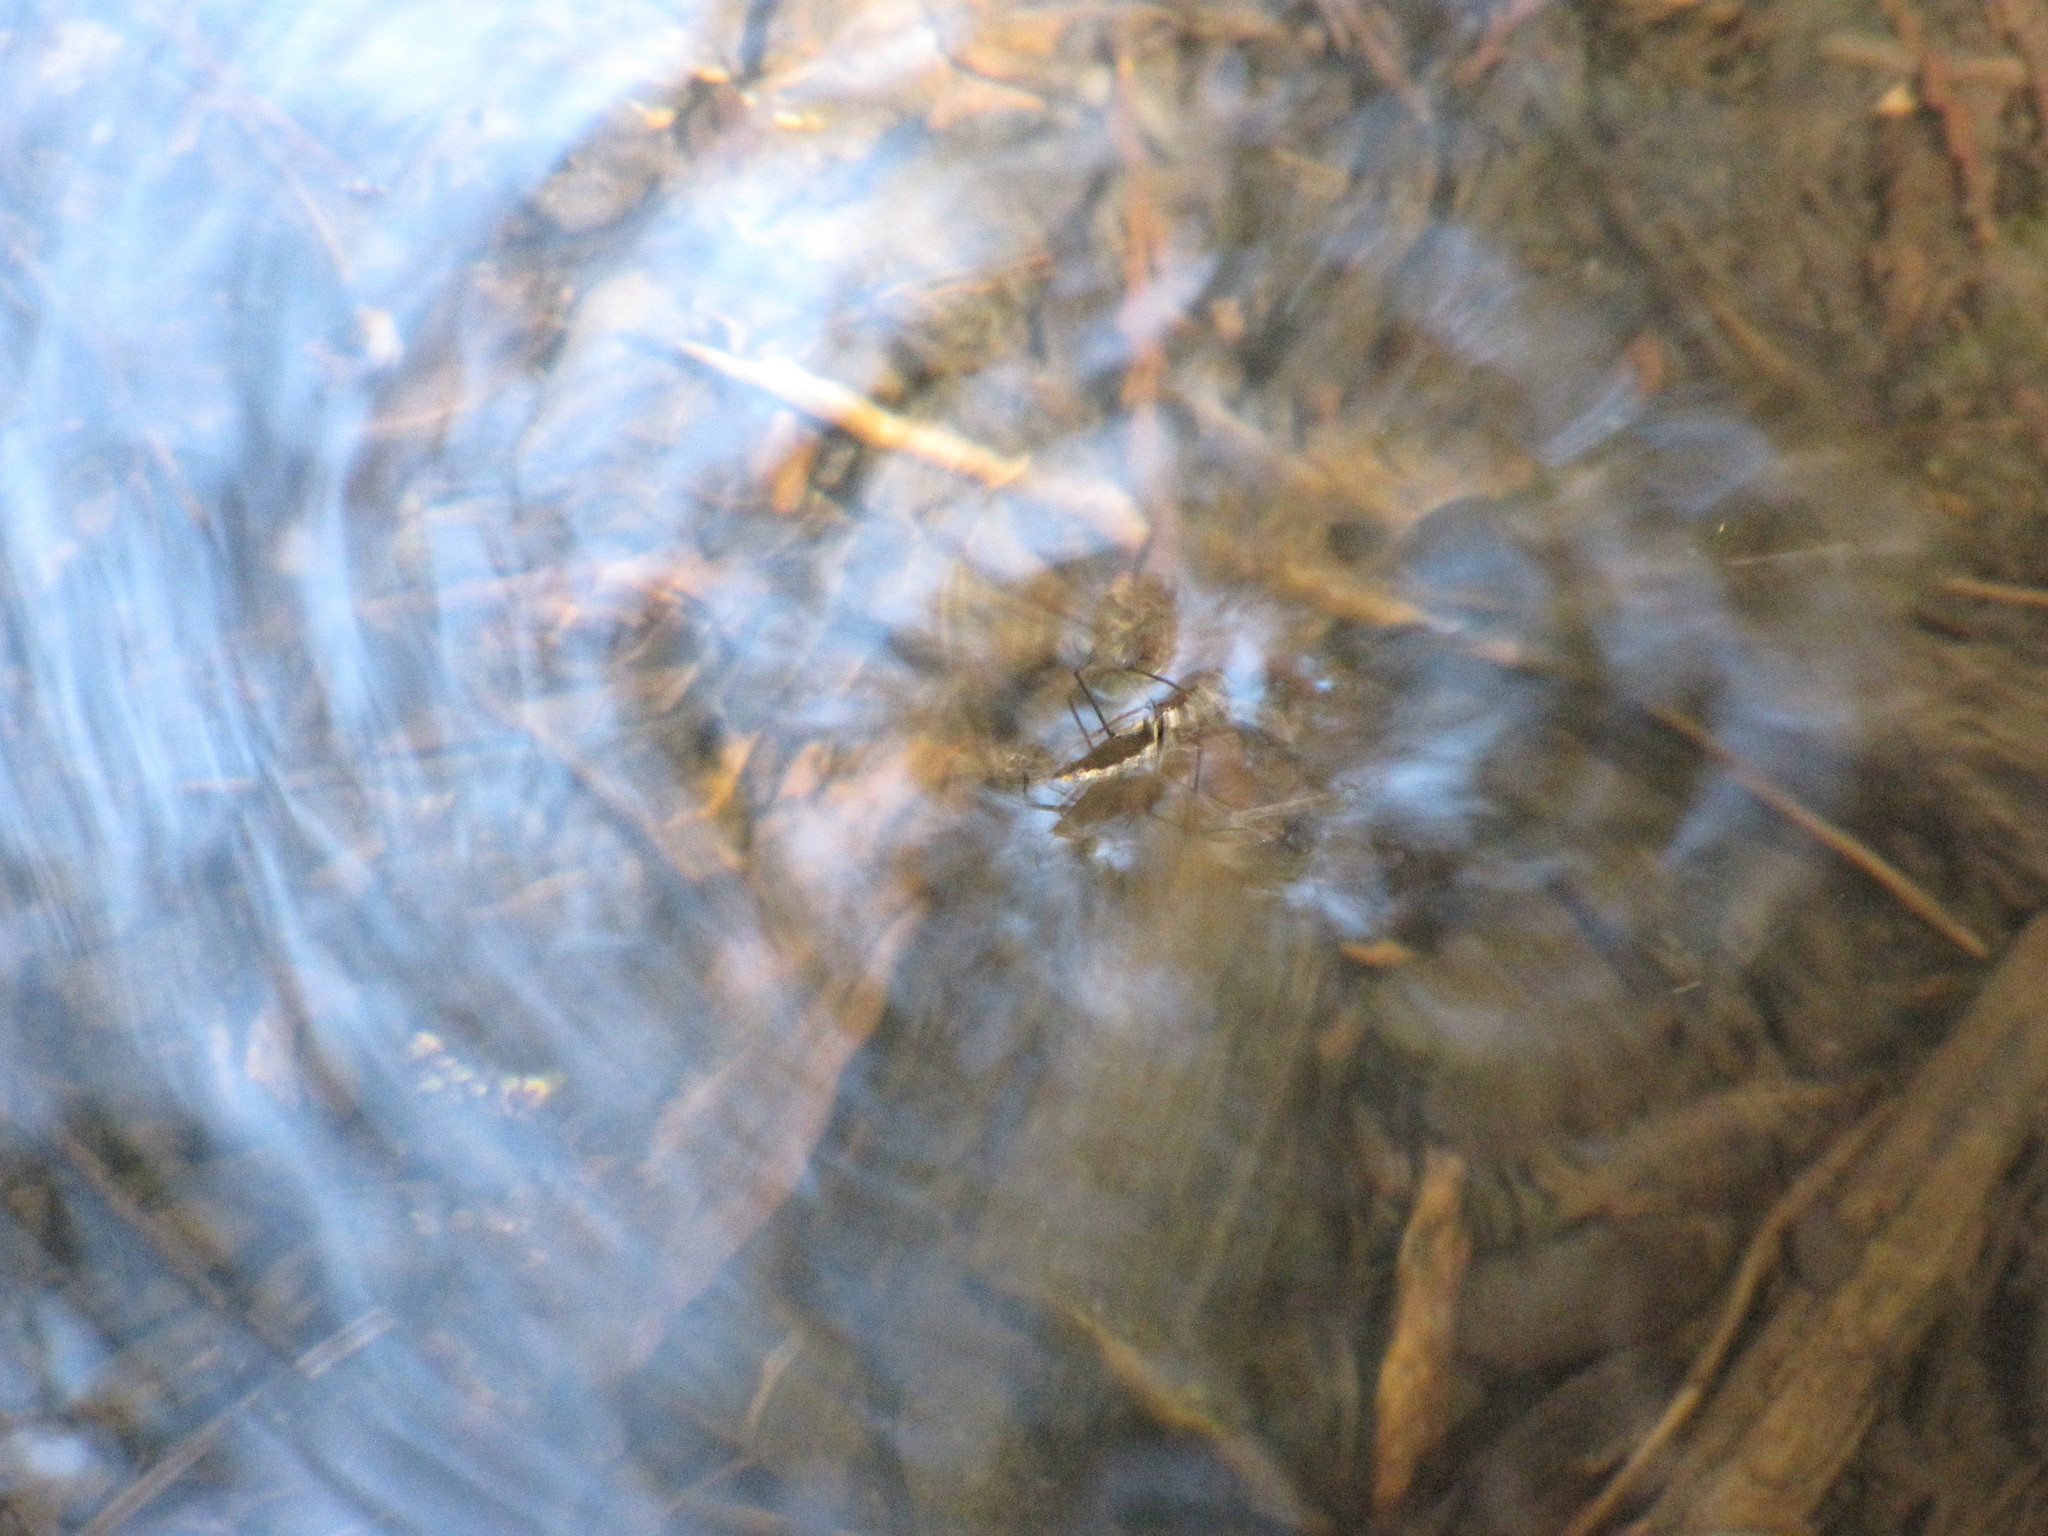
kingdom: Animalia
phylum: Arthropoda
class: Insecta
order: Hemiptera
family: Gerridae
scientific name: Gerridae
